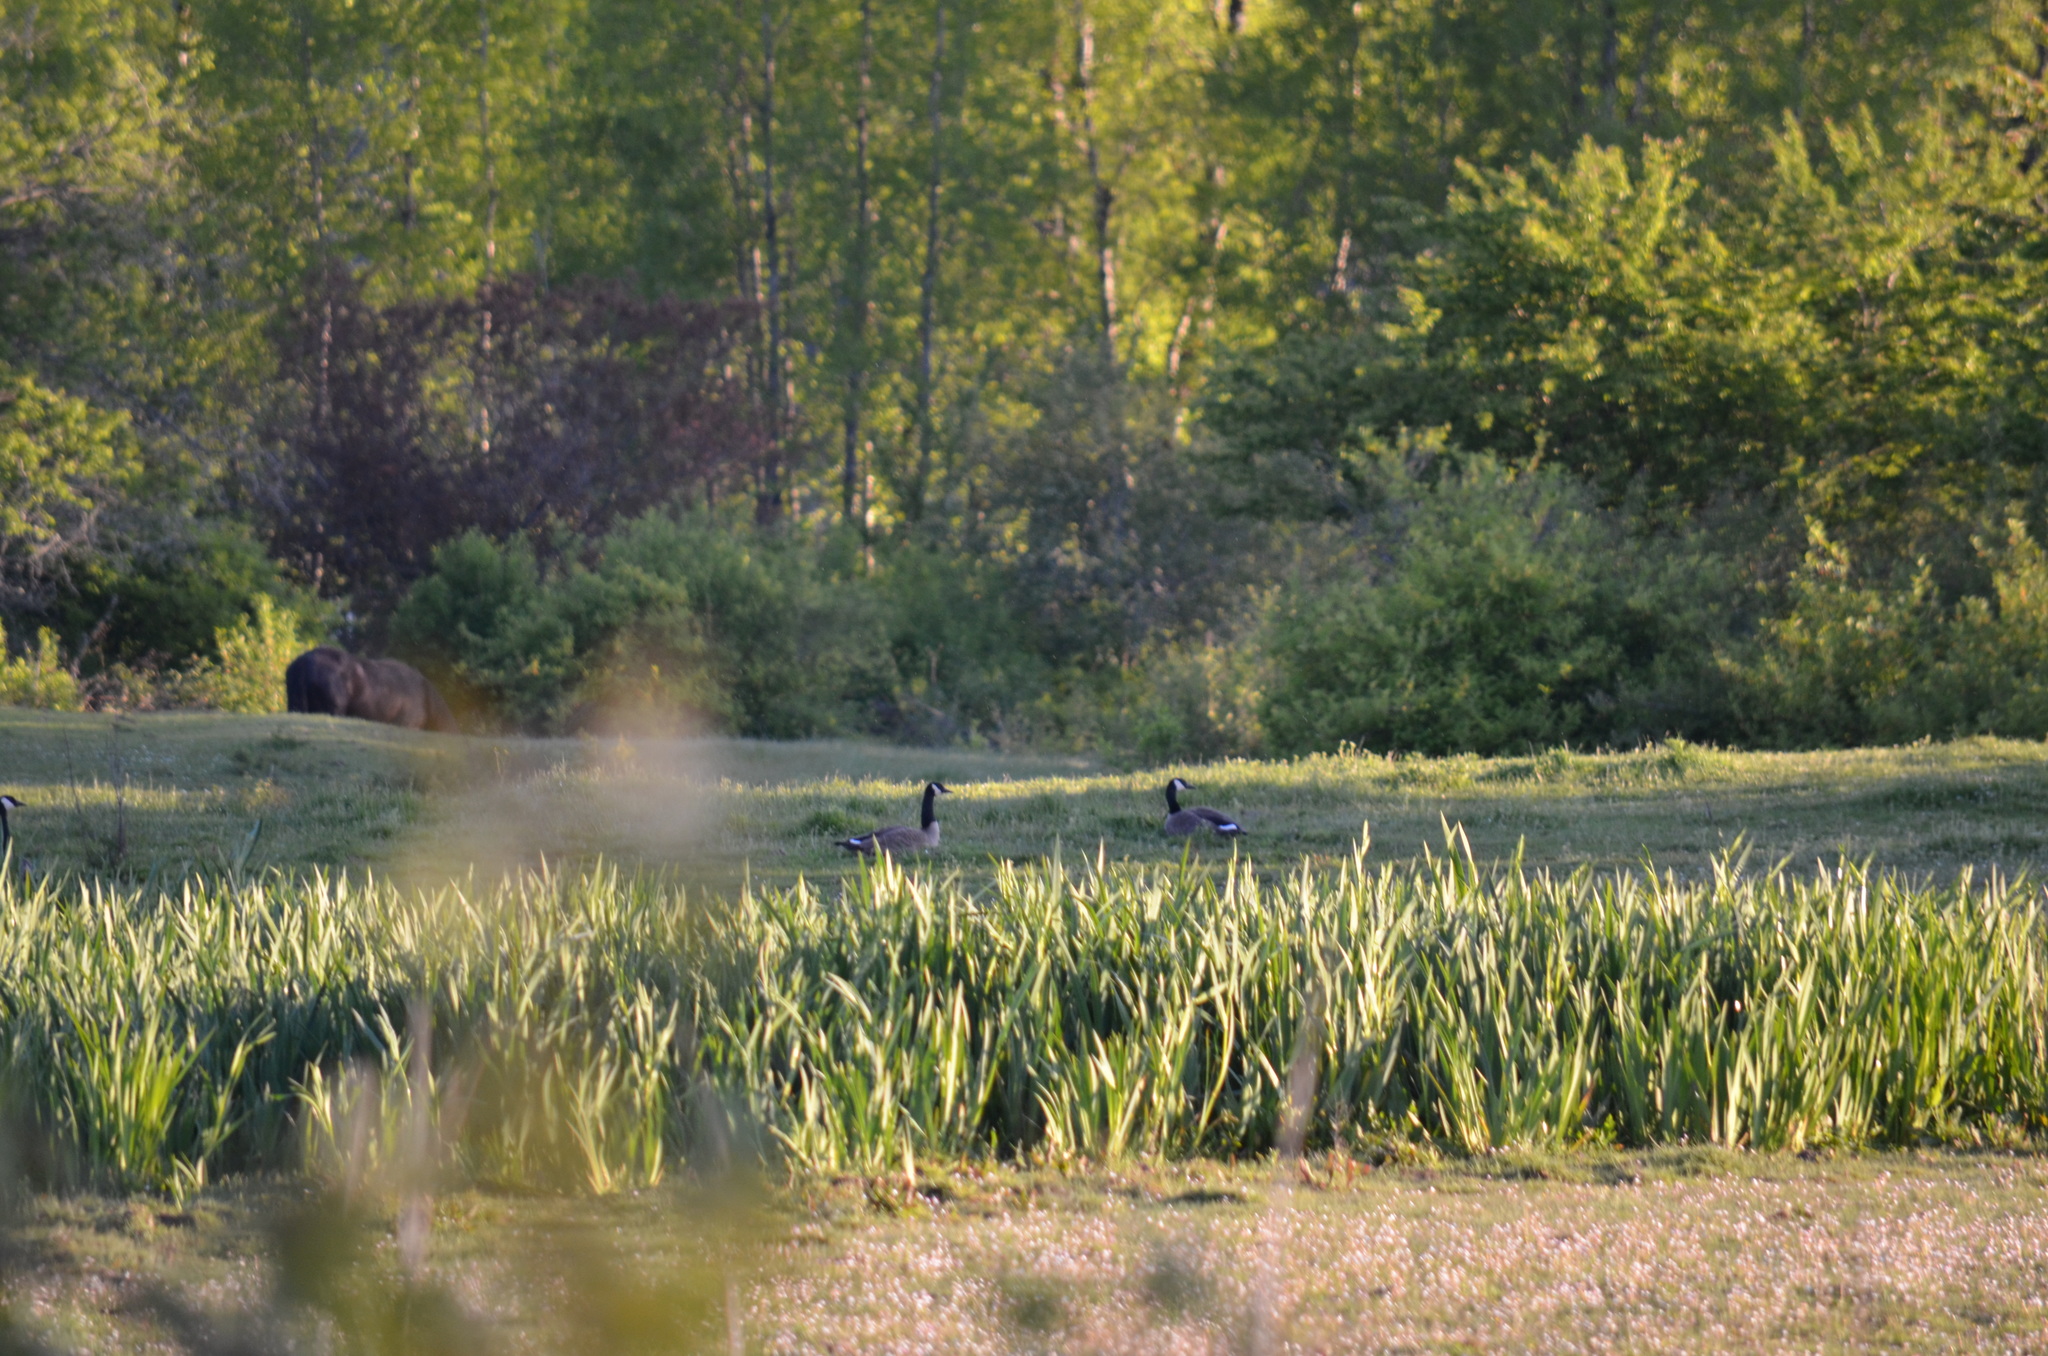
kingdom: Animalia
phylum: Chordata
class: Aves
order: Anseriformes
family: Anatidae
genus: Branta
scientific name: Branta canadensis
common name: Canada goose
